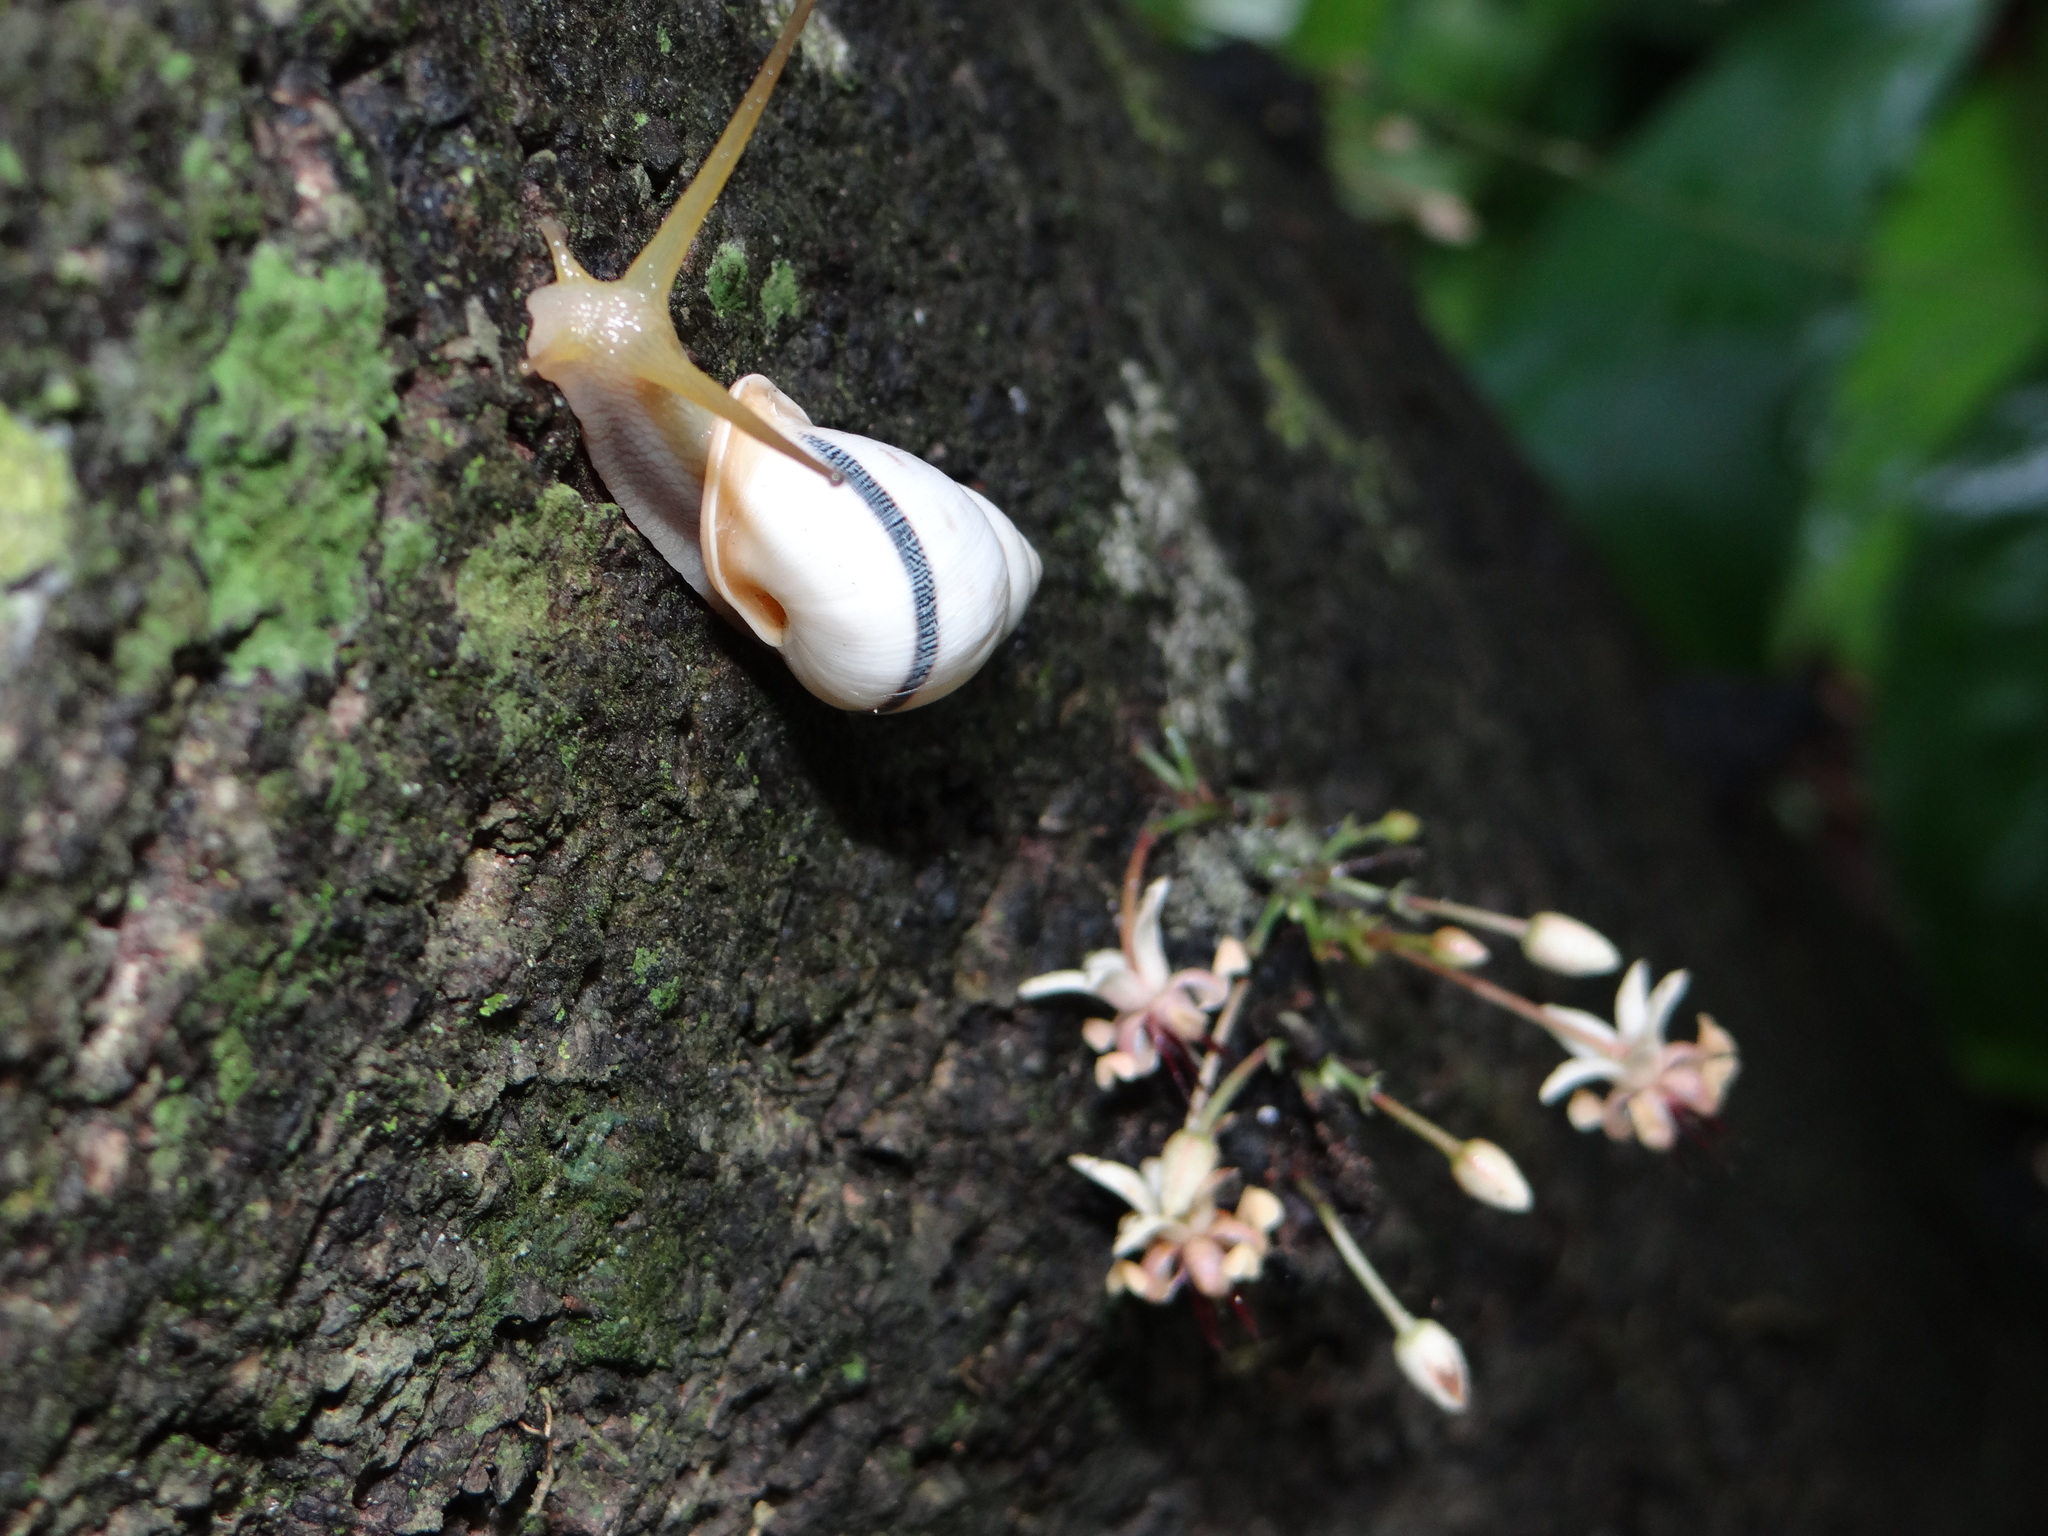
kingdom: Animalia
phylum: Mollusca
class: Gastropoda
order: Stylommatophora
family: Bulimulidae
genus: Drymaeus
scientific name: Drymaeus branneri
